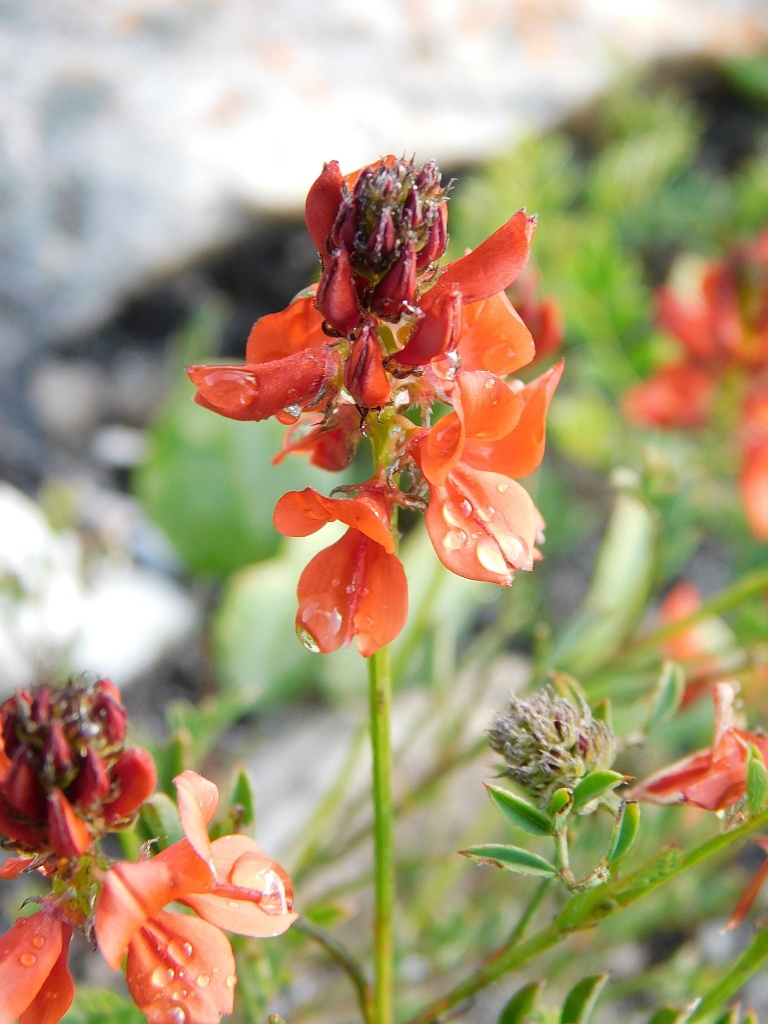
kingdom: Plantae
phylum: Tracheophyta
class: Magnoliopsida
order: Fabales
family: Fabaceae
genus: Indigofera
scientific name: Indigofera capillaris
